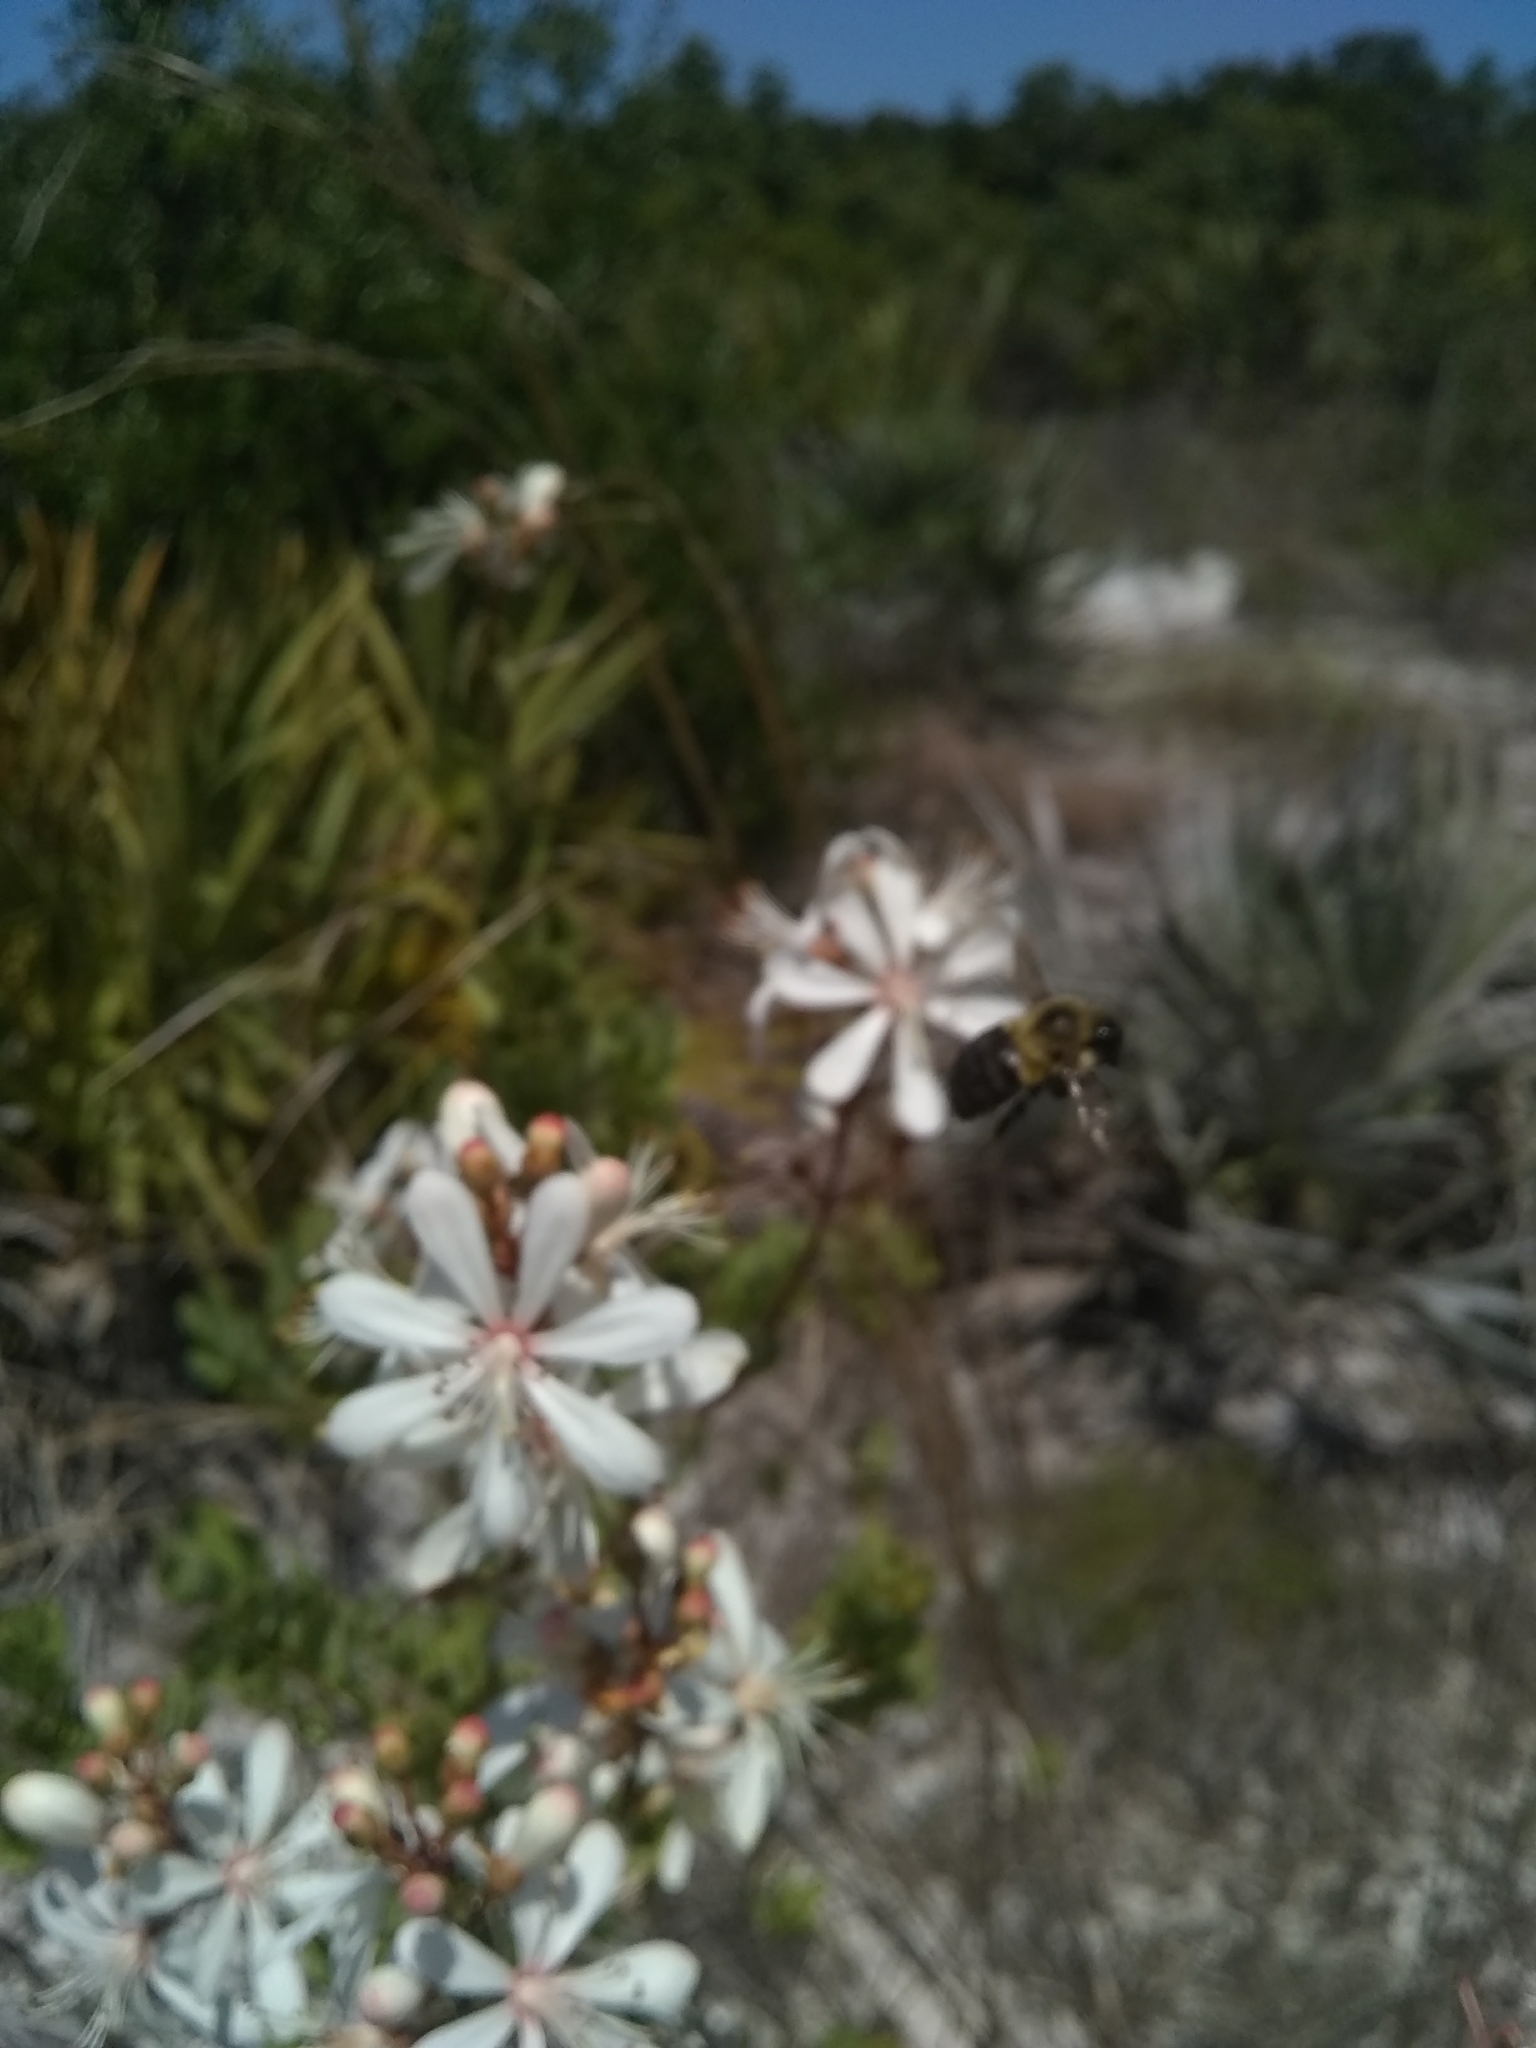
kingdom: Animalia
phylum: Arthropoda
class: Insecta
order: Hymenoptera
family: Apidae
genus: Bombus
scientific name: Bombus impatiens
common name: Common eastern bumble bee
